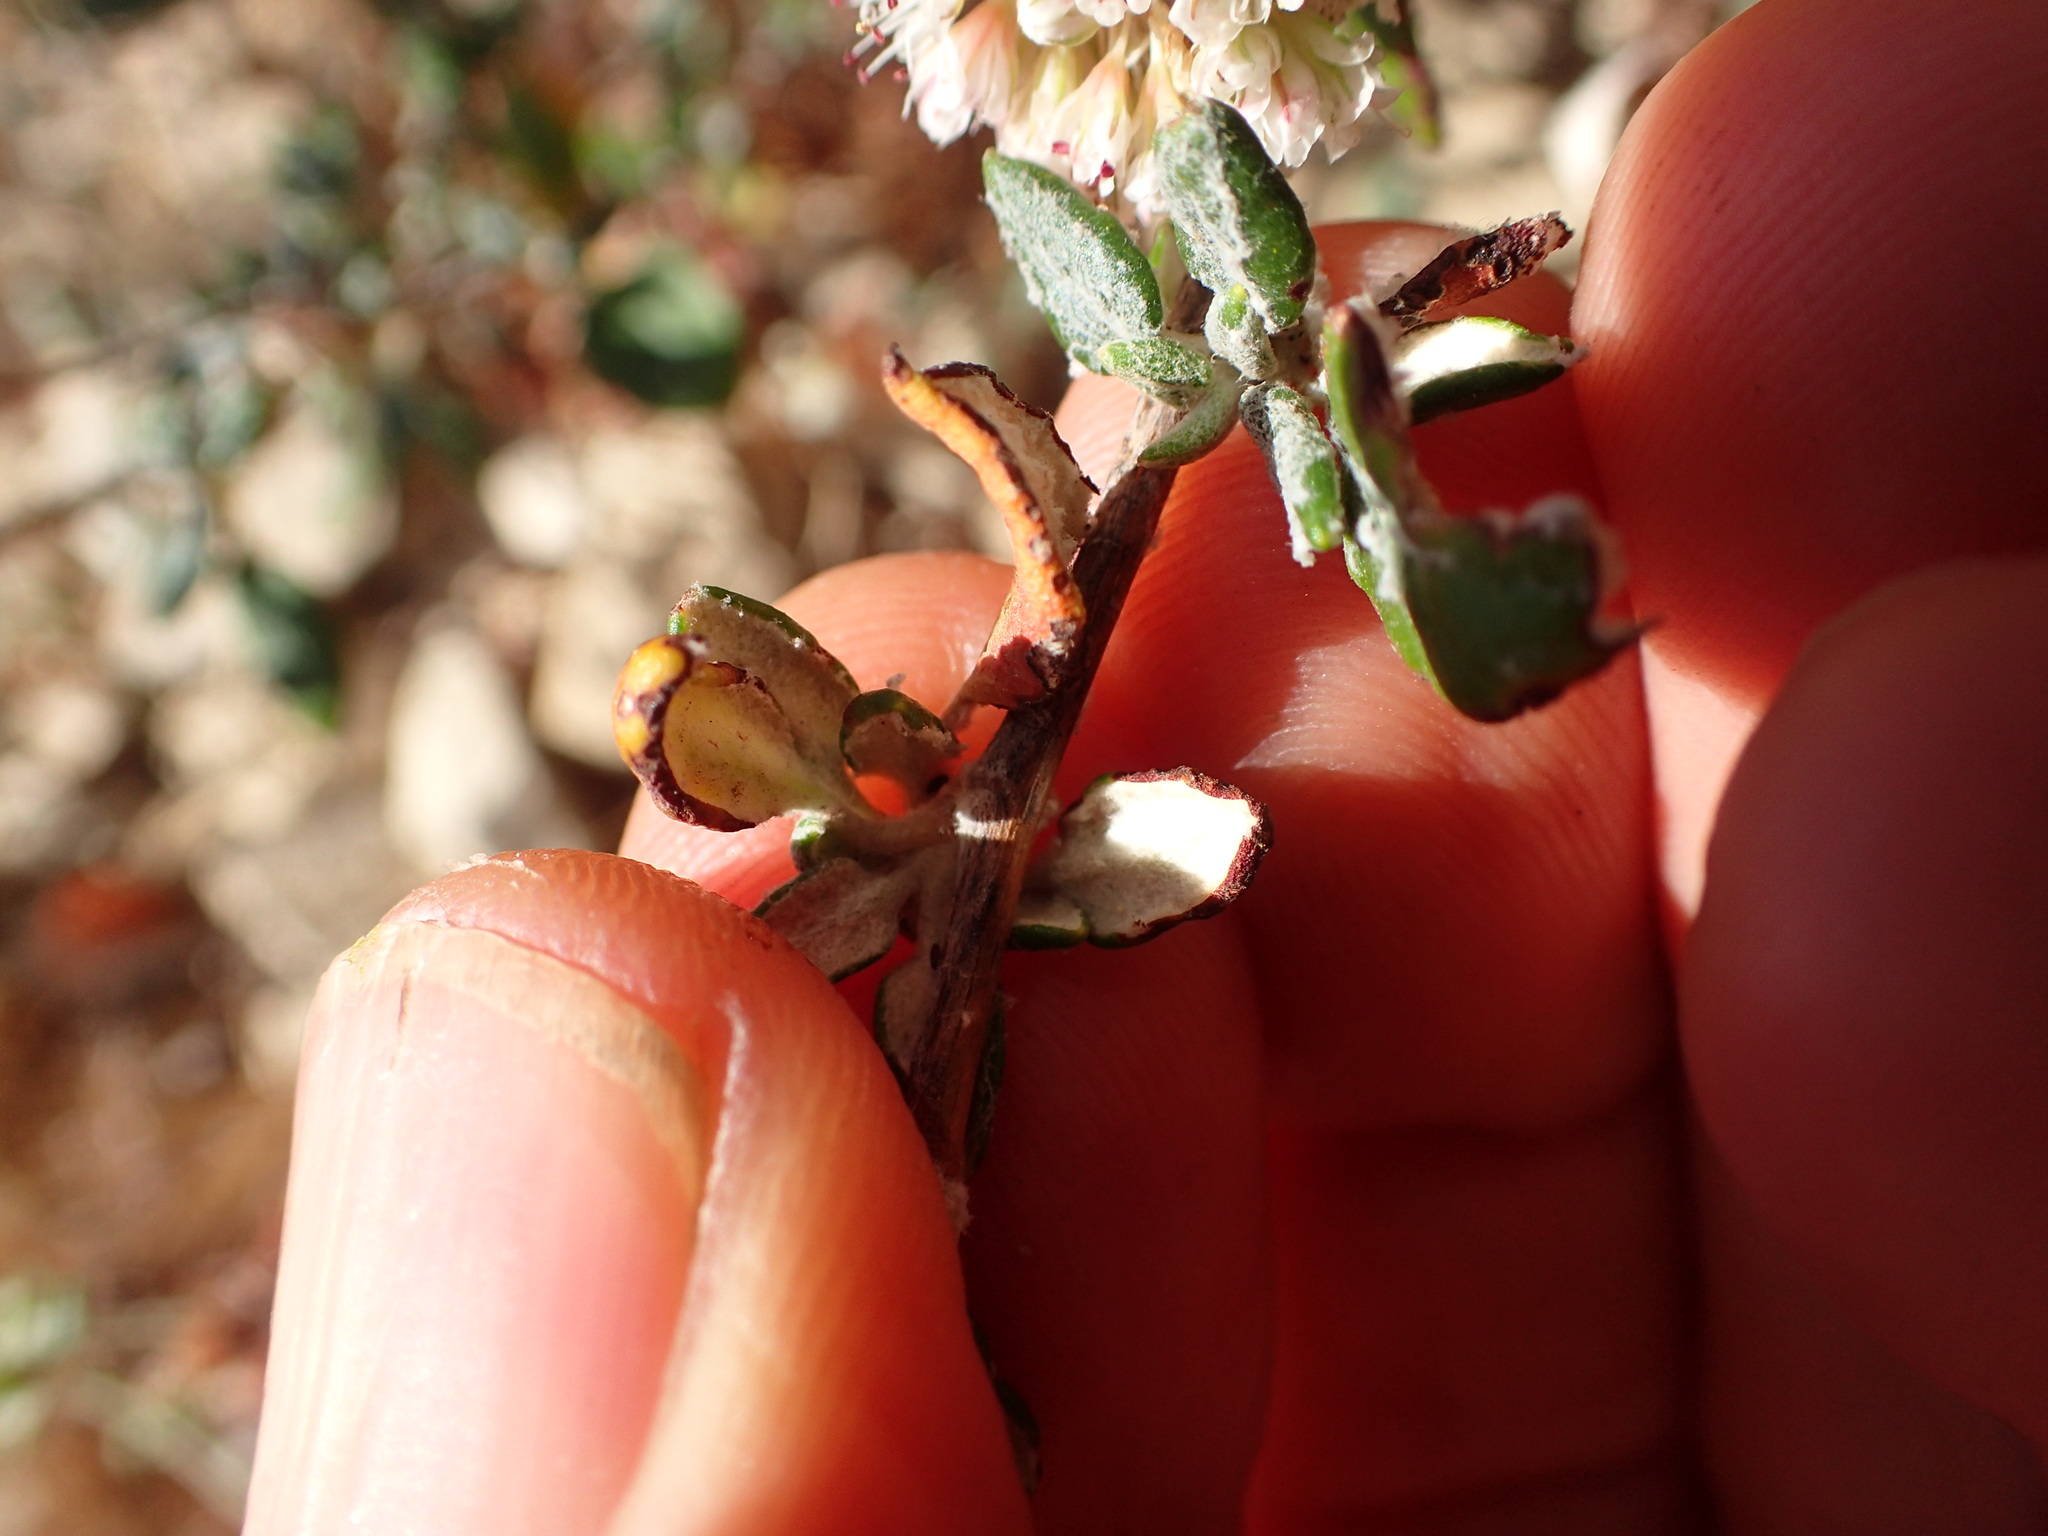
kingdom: Plantae
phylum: Tracheophyta
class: Magnoliopsida
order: Caryophyllales
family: Polygonaceae
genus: Eriogonum
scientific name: Eriogonum parvifolium
